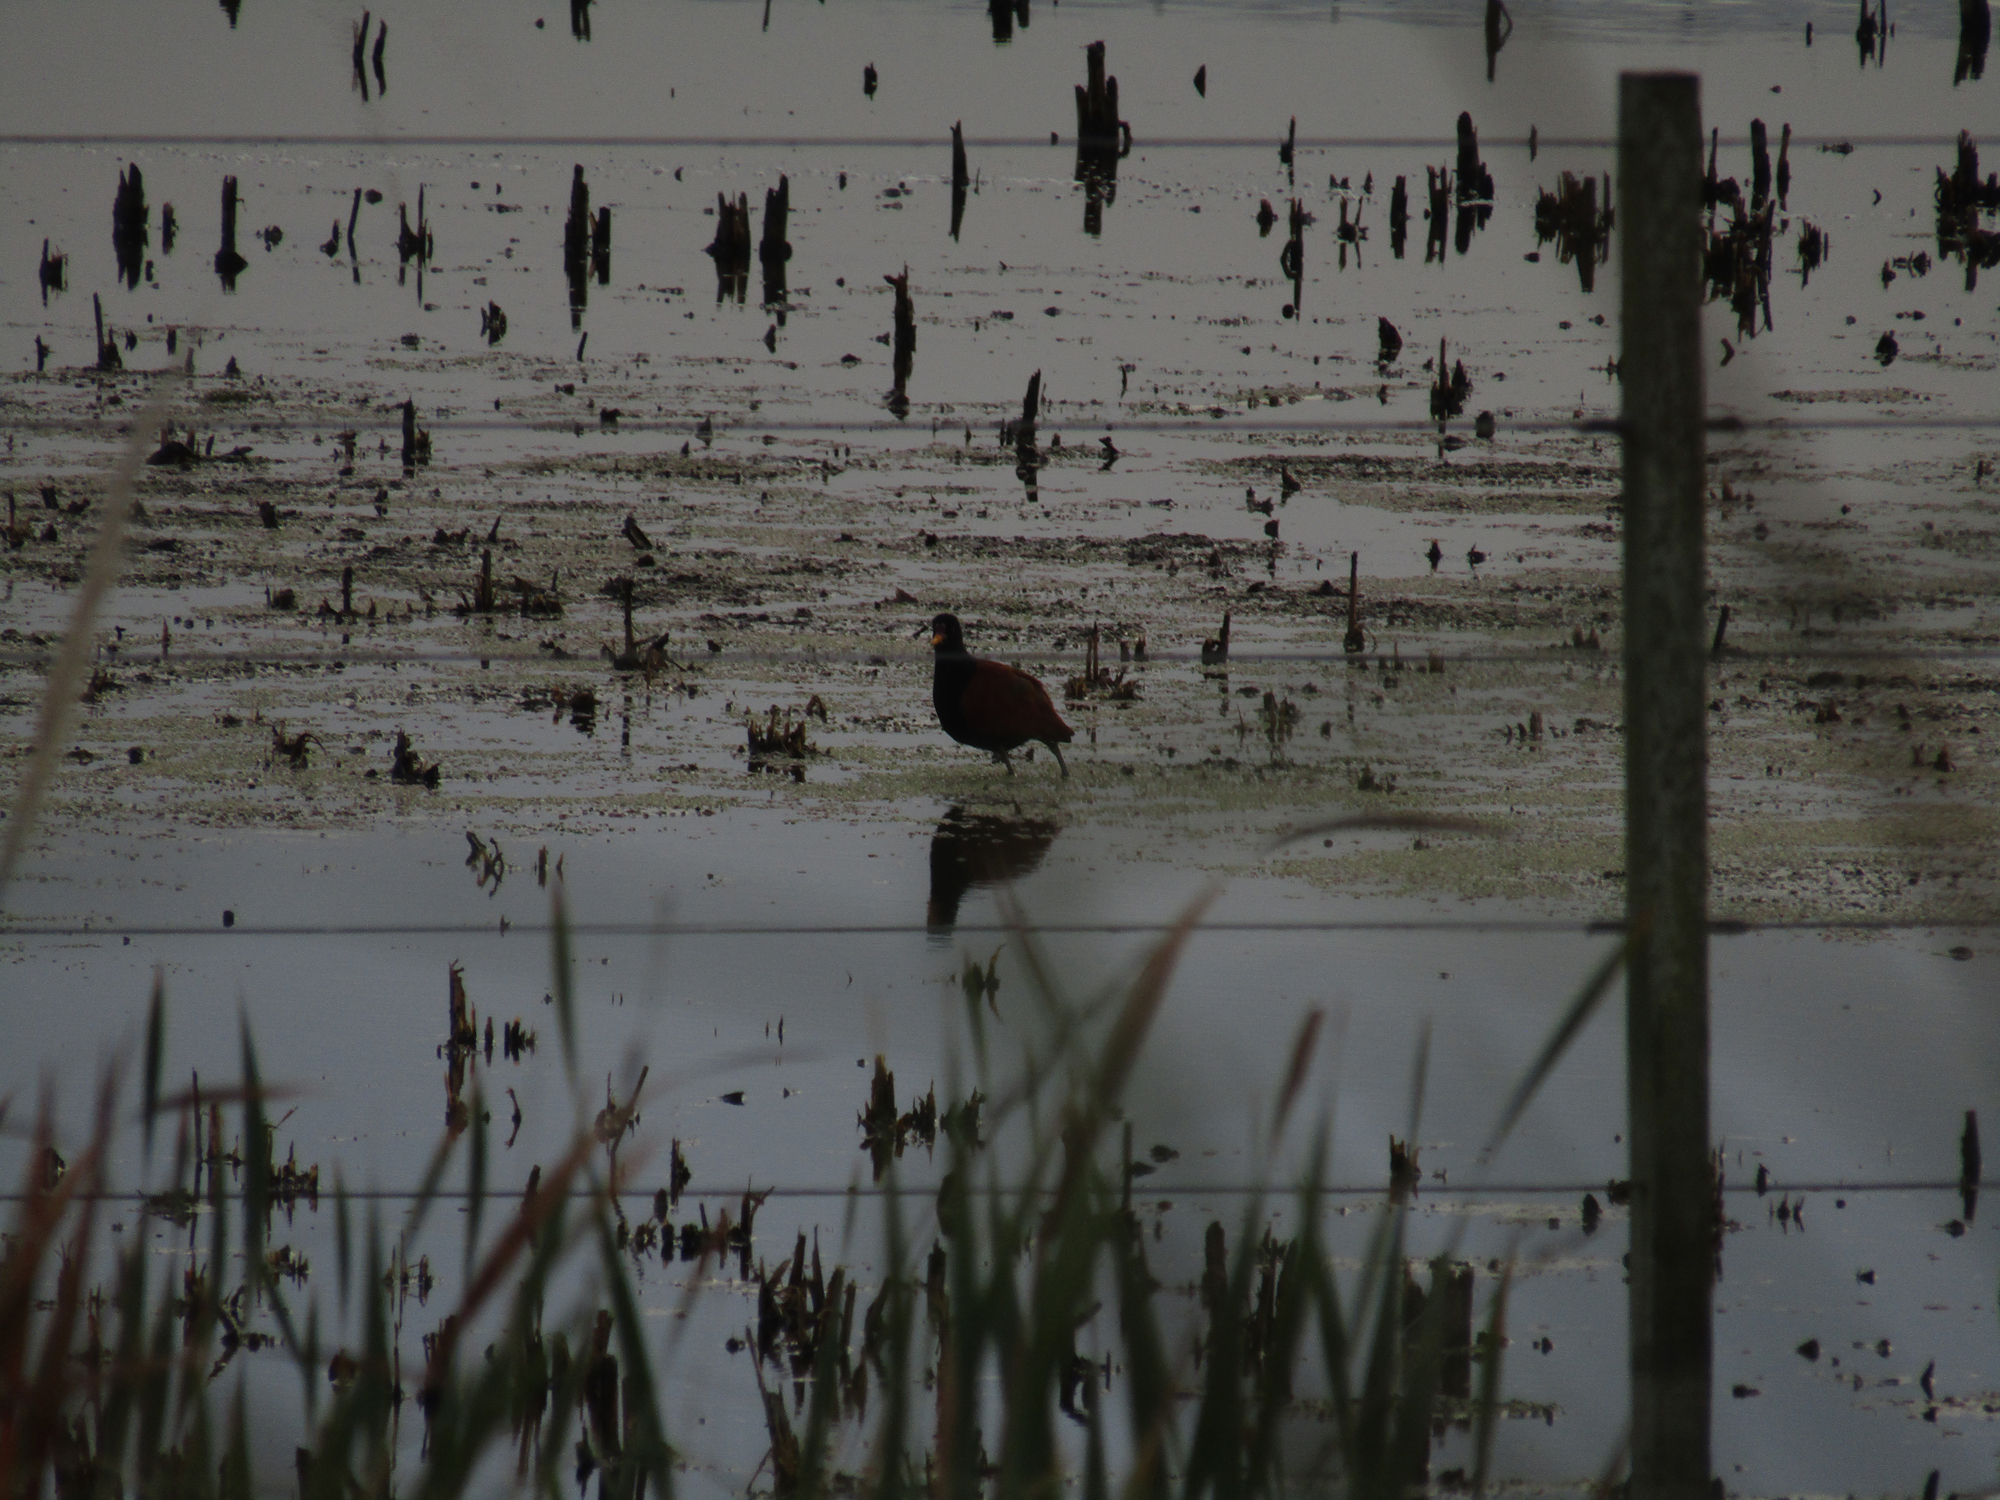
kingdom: Animalia
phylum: Chordata
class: Aves
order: Charadriiformes
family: Jacanidae
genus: Jacana
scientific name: Jacana jacana
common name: Wattled jacana
